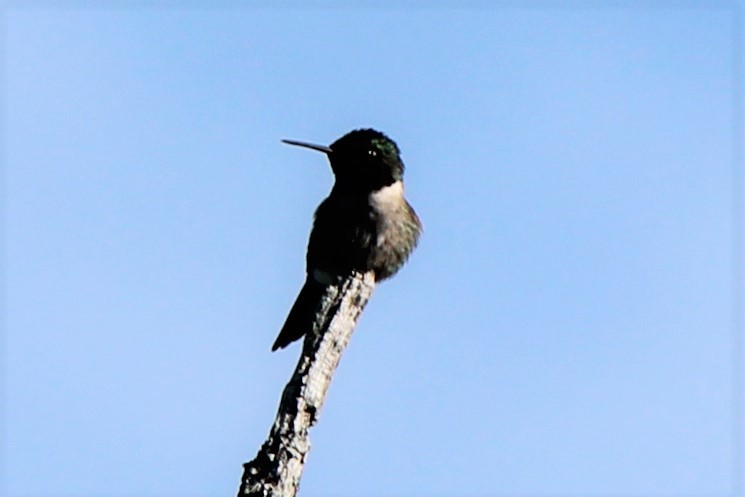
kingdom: Animalia
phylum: Chordata
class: Aves
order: Apodiformes
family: Trochilidae
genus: Archilochus
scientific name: Archilochus colubris
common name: Ruby-throated hummingbird
